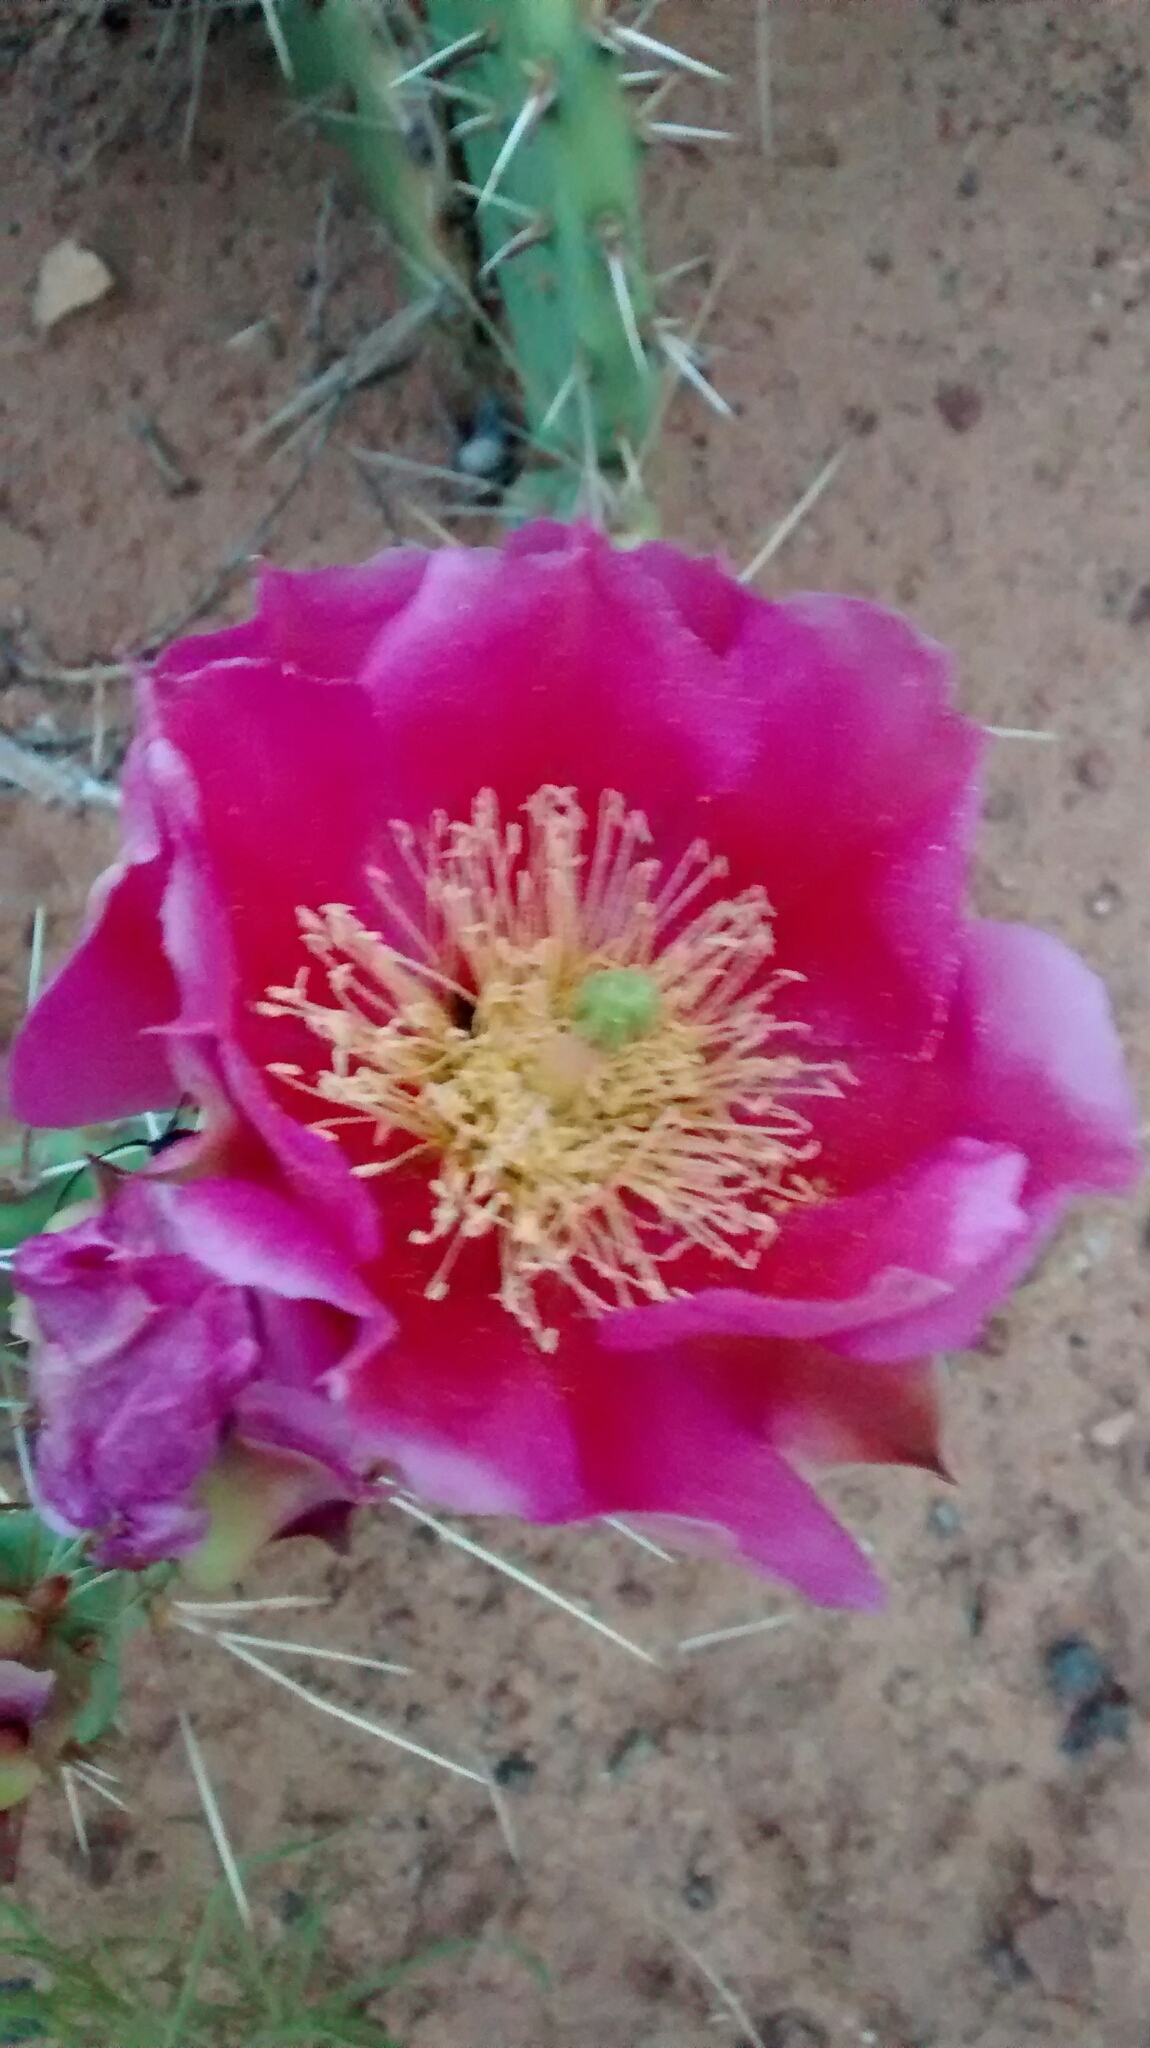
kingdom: Plantae
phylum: Tracheophyta
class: Magnoliopsida
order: Caryophyllales
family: Cactaceae
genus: Opuntia
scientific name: Opuntia polyacantha
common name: Plains prickly-pear
